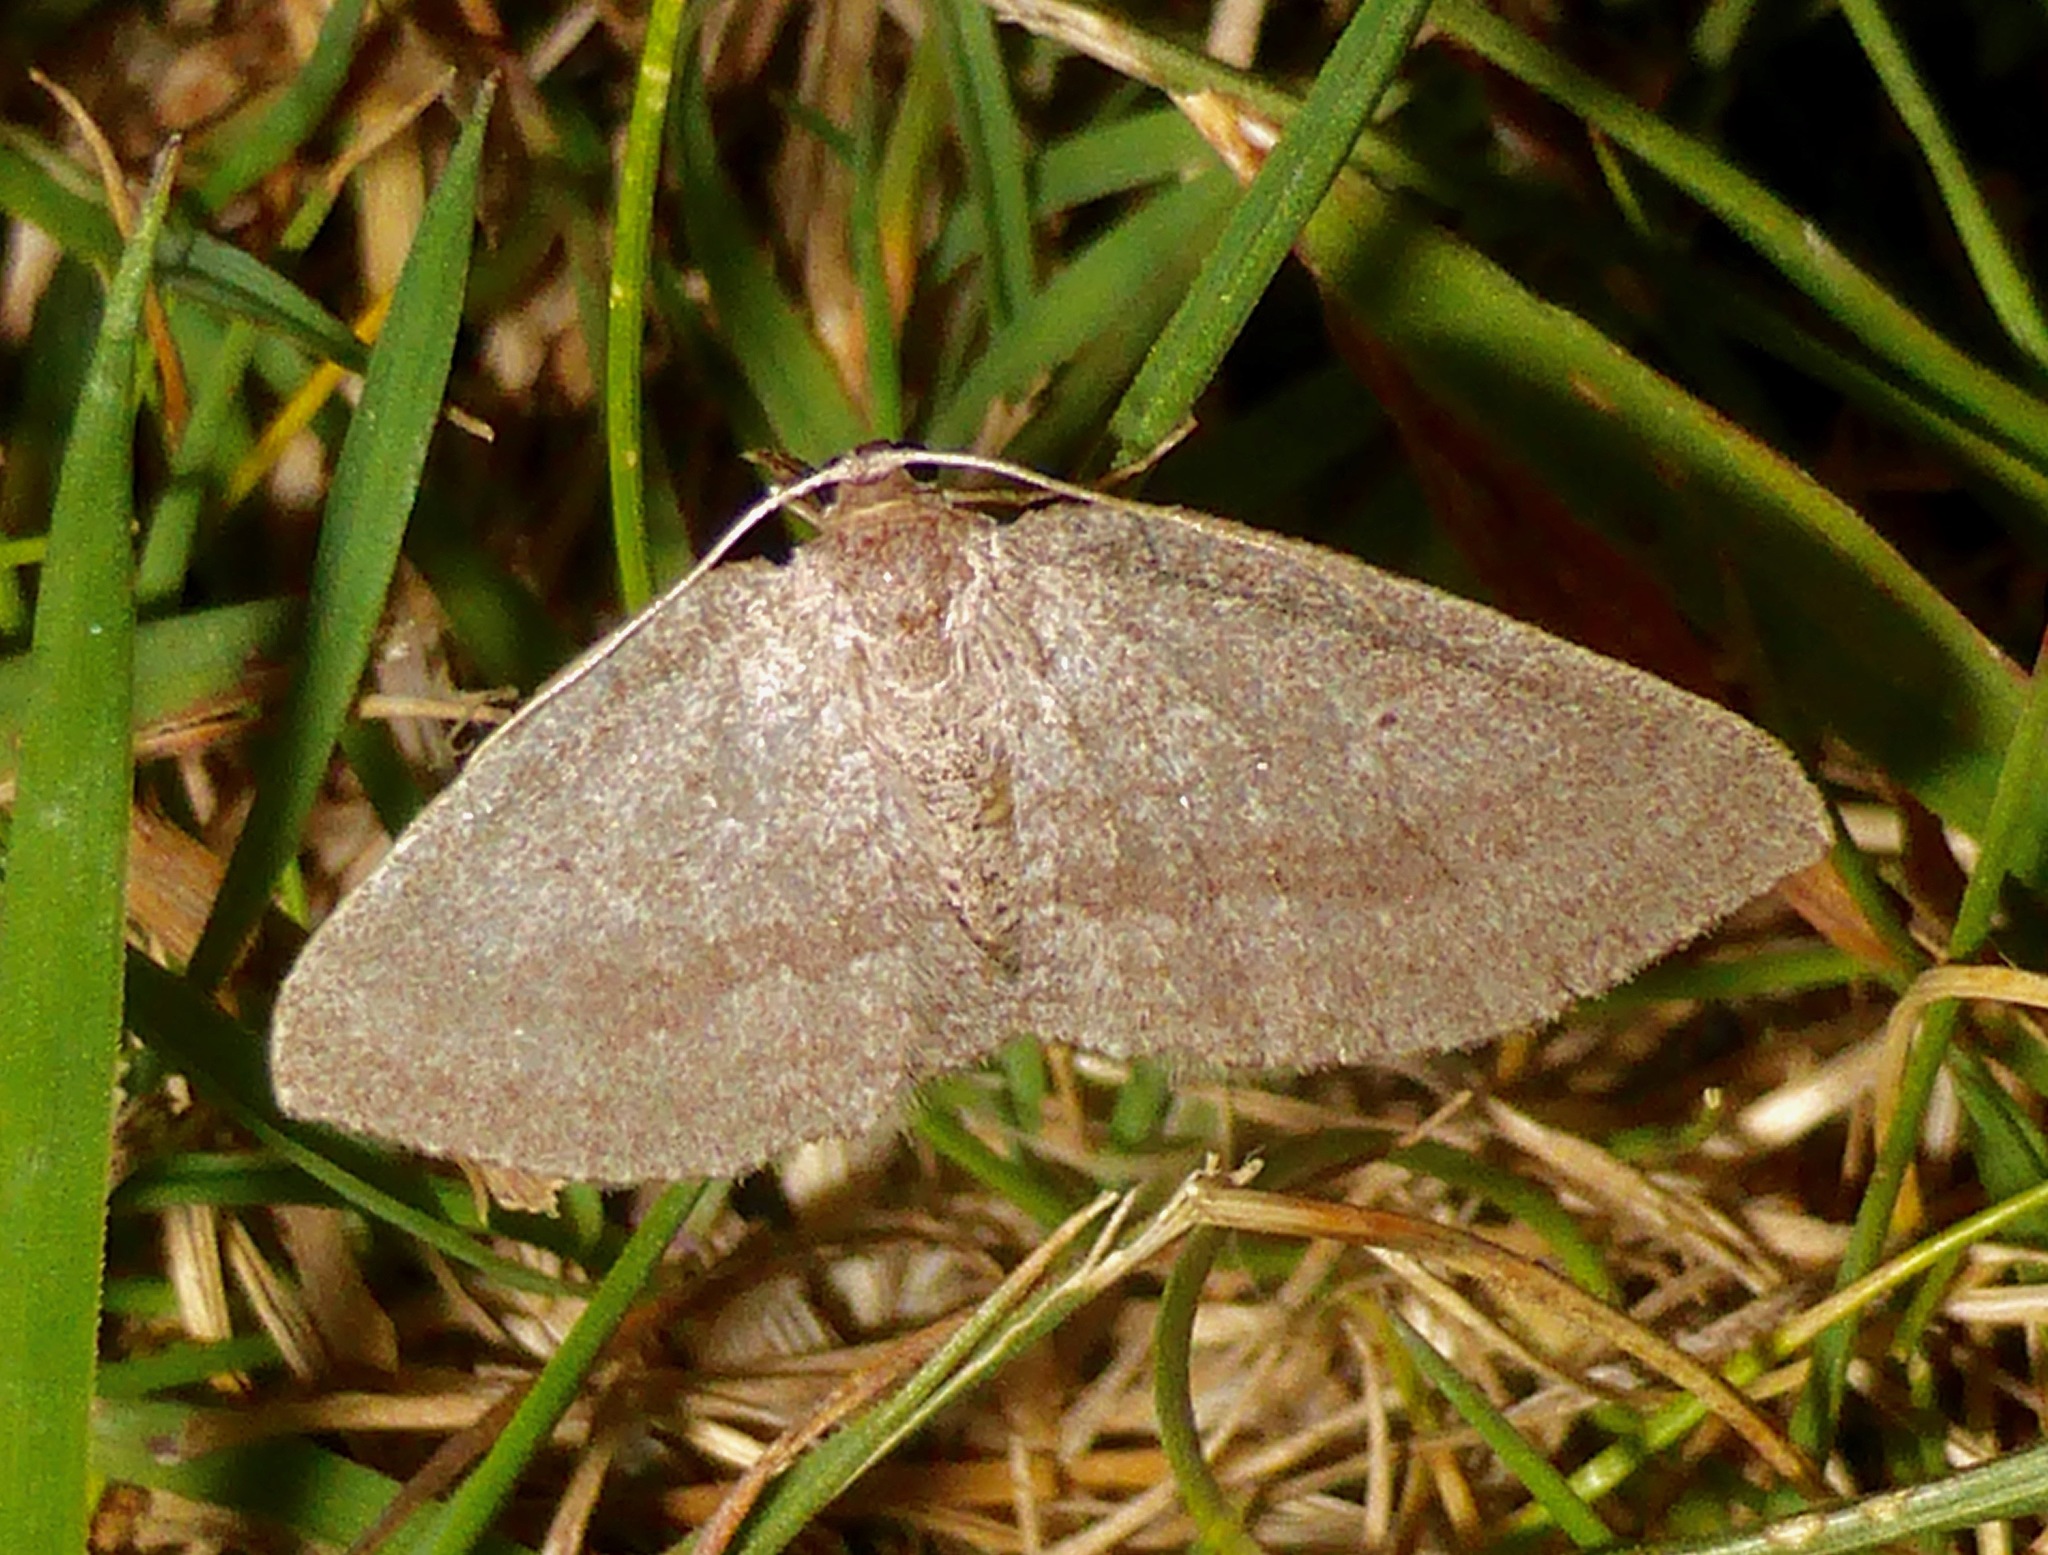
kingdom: Animalia
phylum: Arthropoda
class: Insecta
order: Lepidoptera
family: Geometridae
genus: Poecilasthena
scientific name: Poecilasthena schistaria
